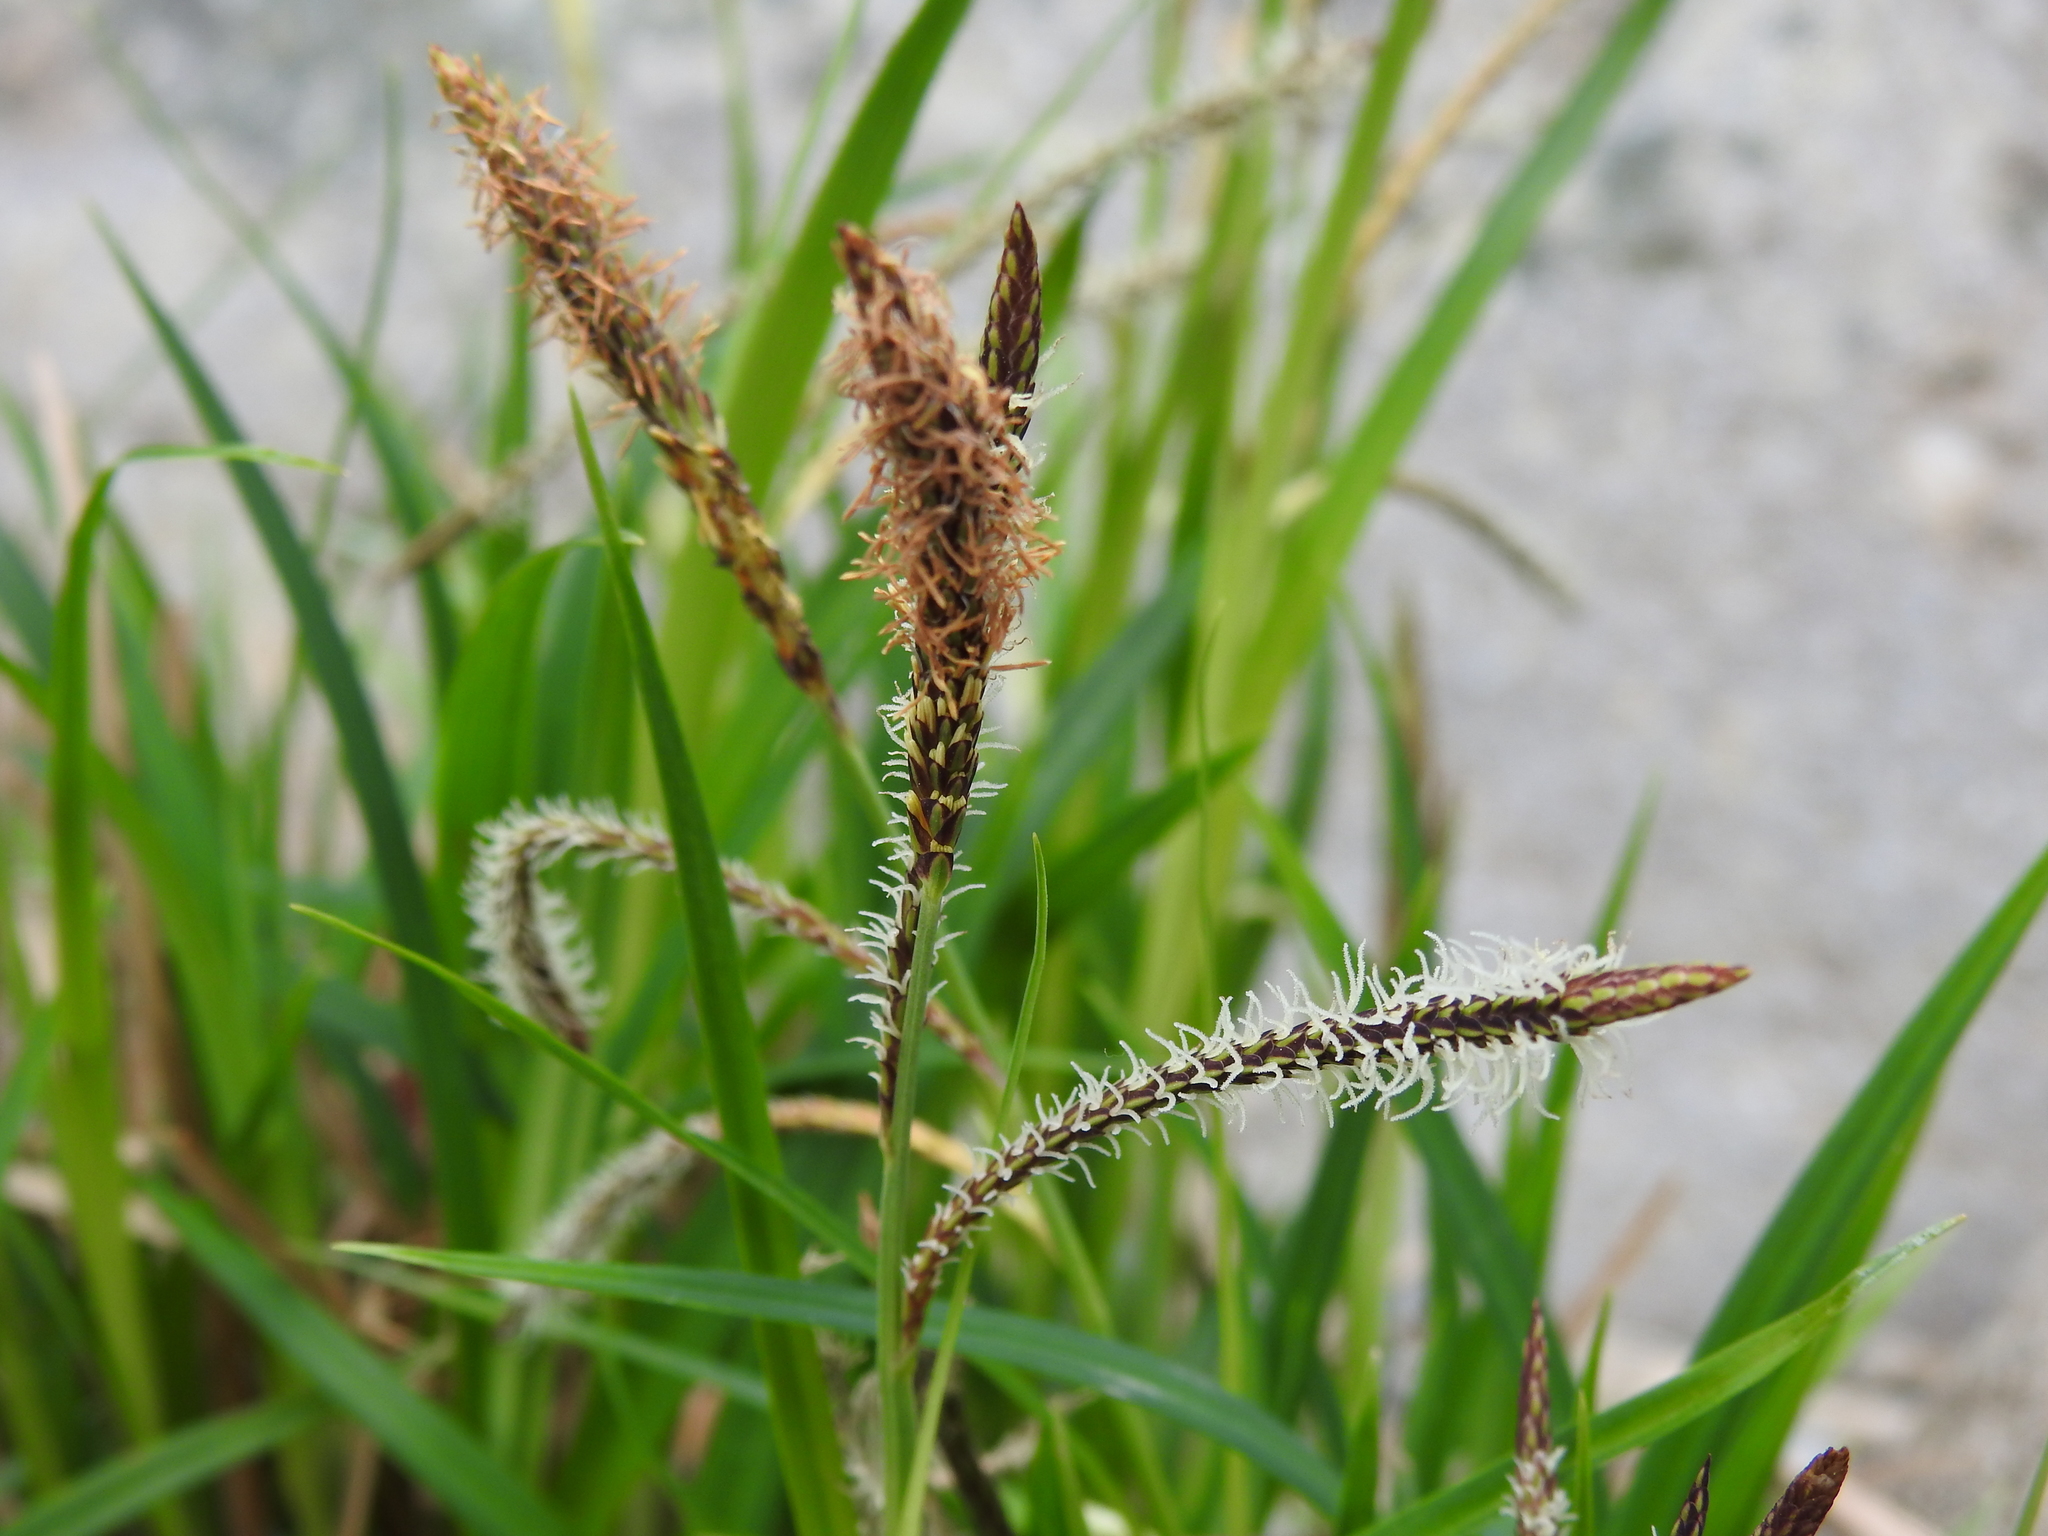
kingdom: Plantae
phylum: Tracheophyta
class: Liliopsida
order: Poales
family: Cyperaceae
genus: Carex
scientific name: Carex torta
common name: Twisted sedge
